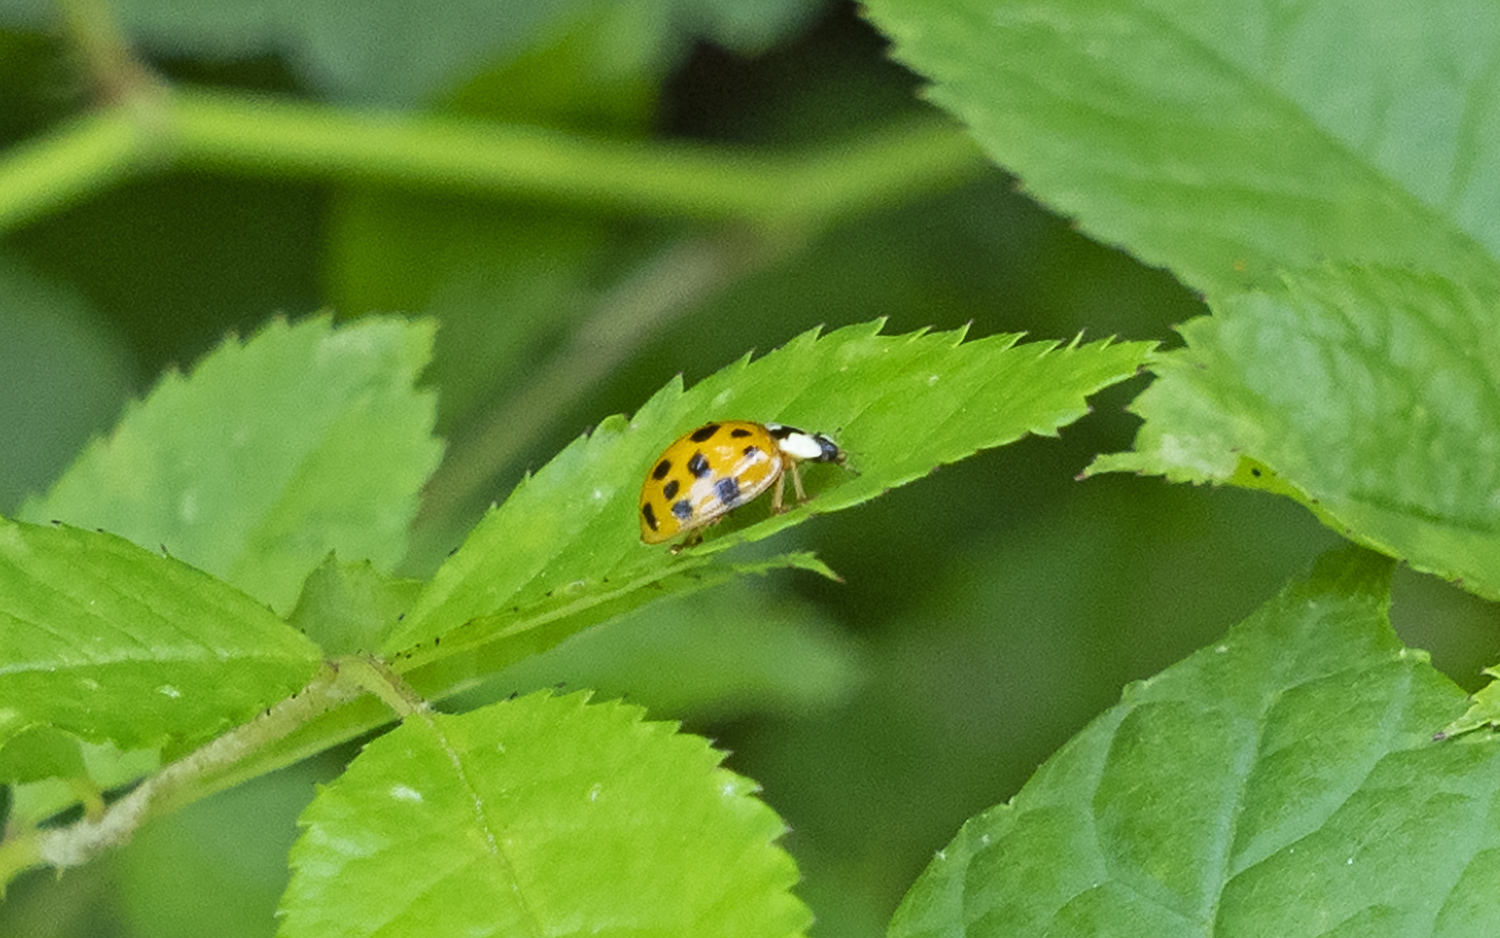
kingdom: Animalia
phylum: Arthropoda
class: Insecta
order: Coleoptera
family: Coccinellidae
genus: Harmonia
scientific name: Harmonia axyridis
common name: Harlequin ladybird
